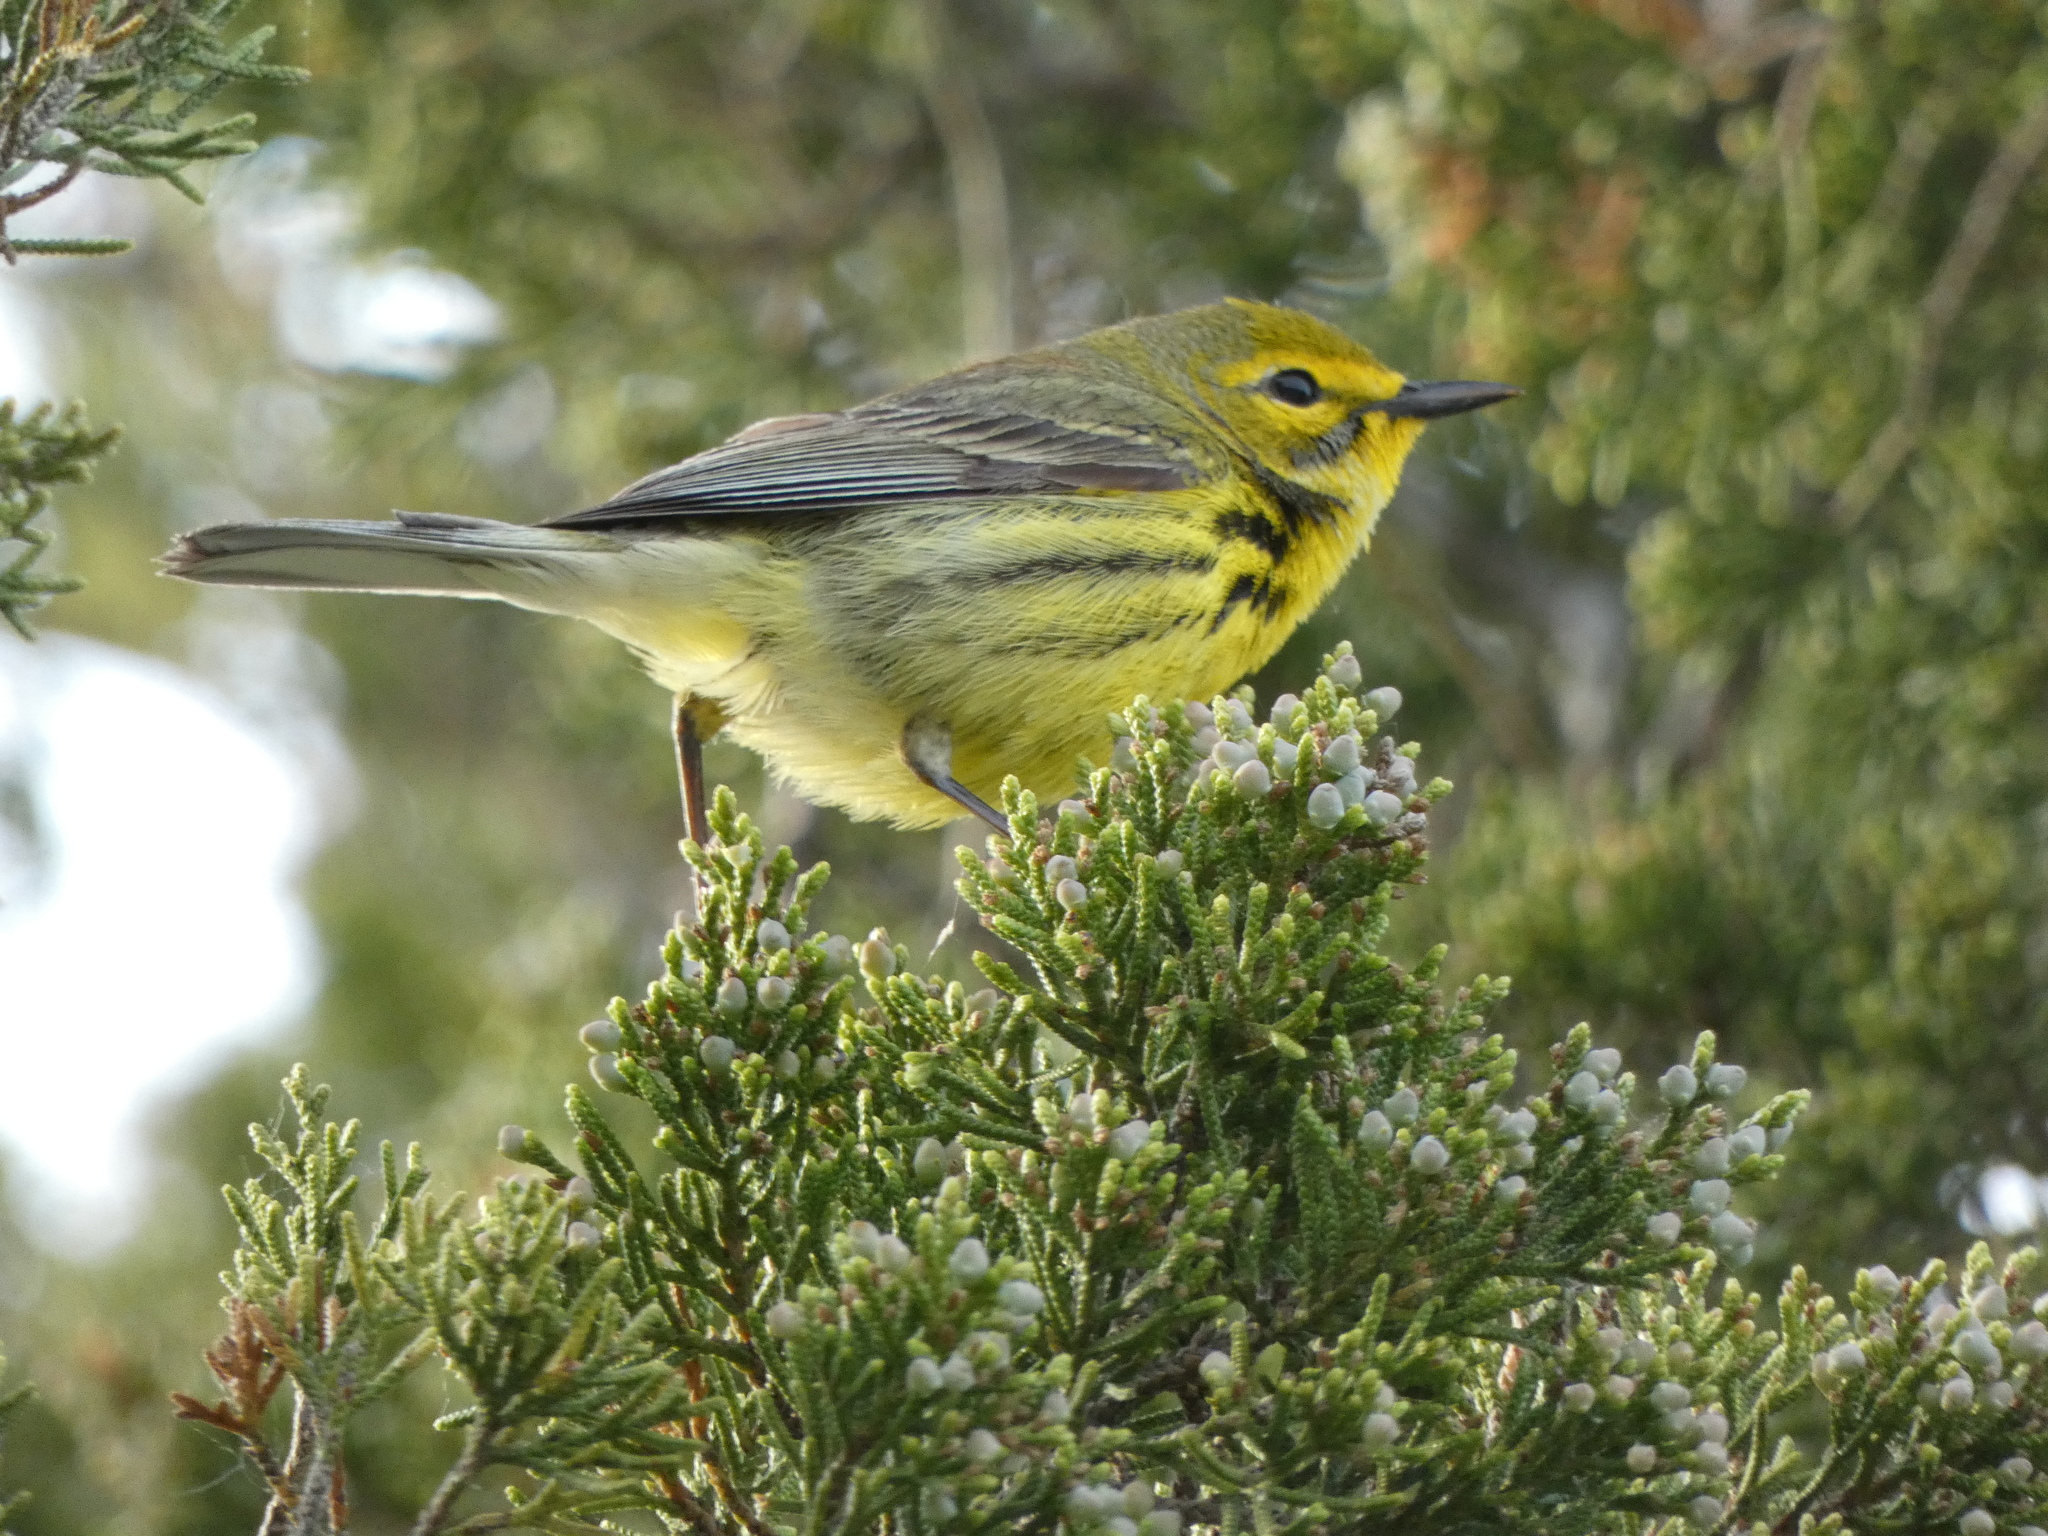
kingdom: Animalia
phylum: Chordata
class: Aves
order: Passeriformes
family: Parulidae
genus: Setophaga
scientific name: Setophaga discolor
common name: Prairie warbler
